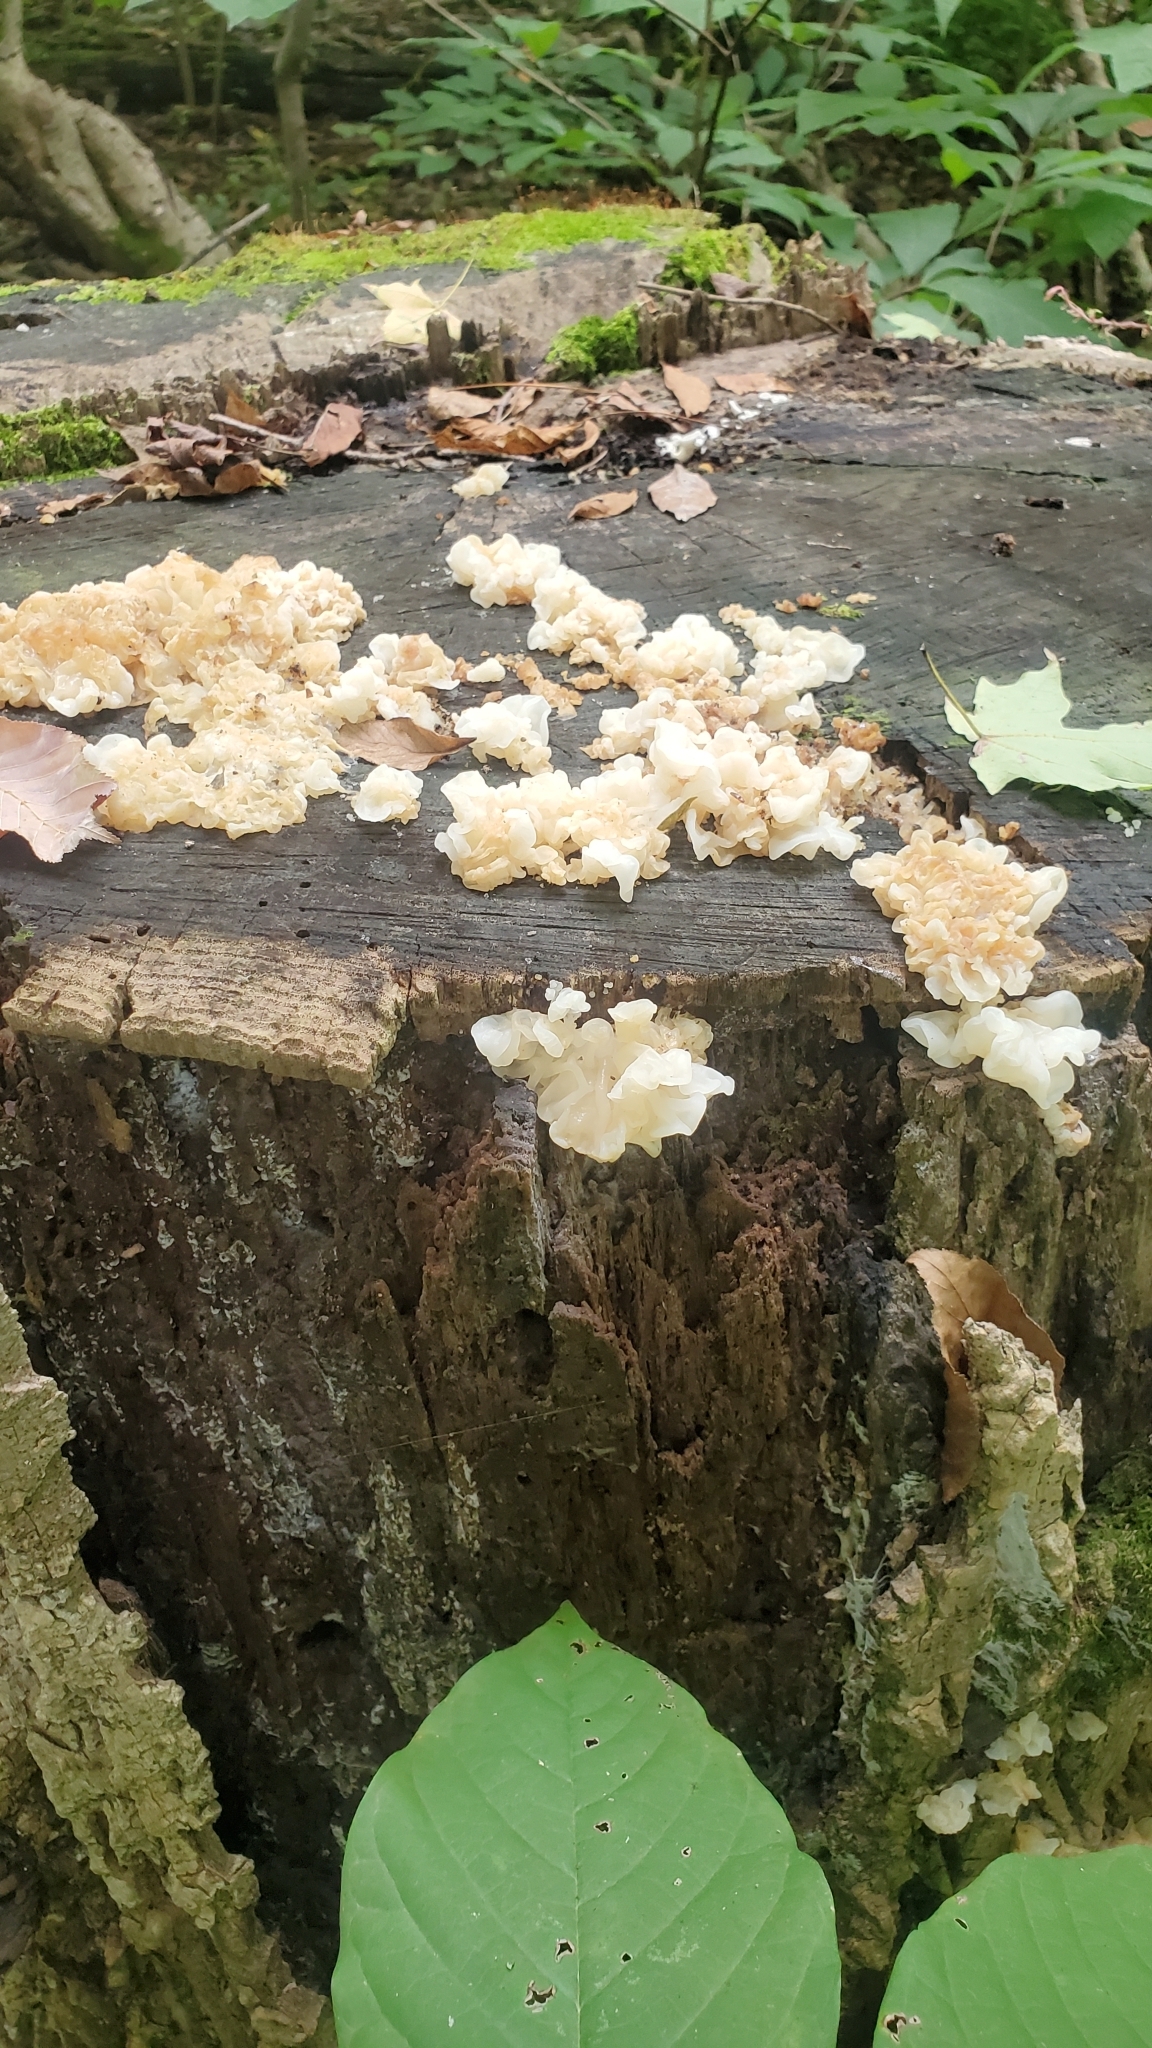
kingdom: Fungi
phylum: Basidiomycota
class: Agaricomycetes
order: Auriculariales
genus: Ductifera
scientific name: Ductifera pululahuana
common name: White jelly fungus
